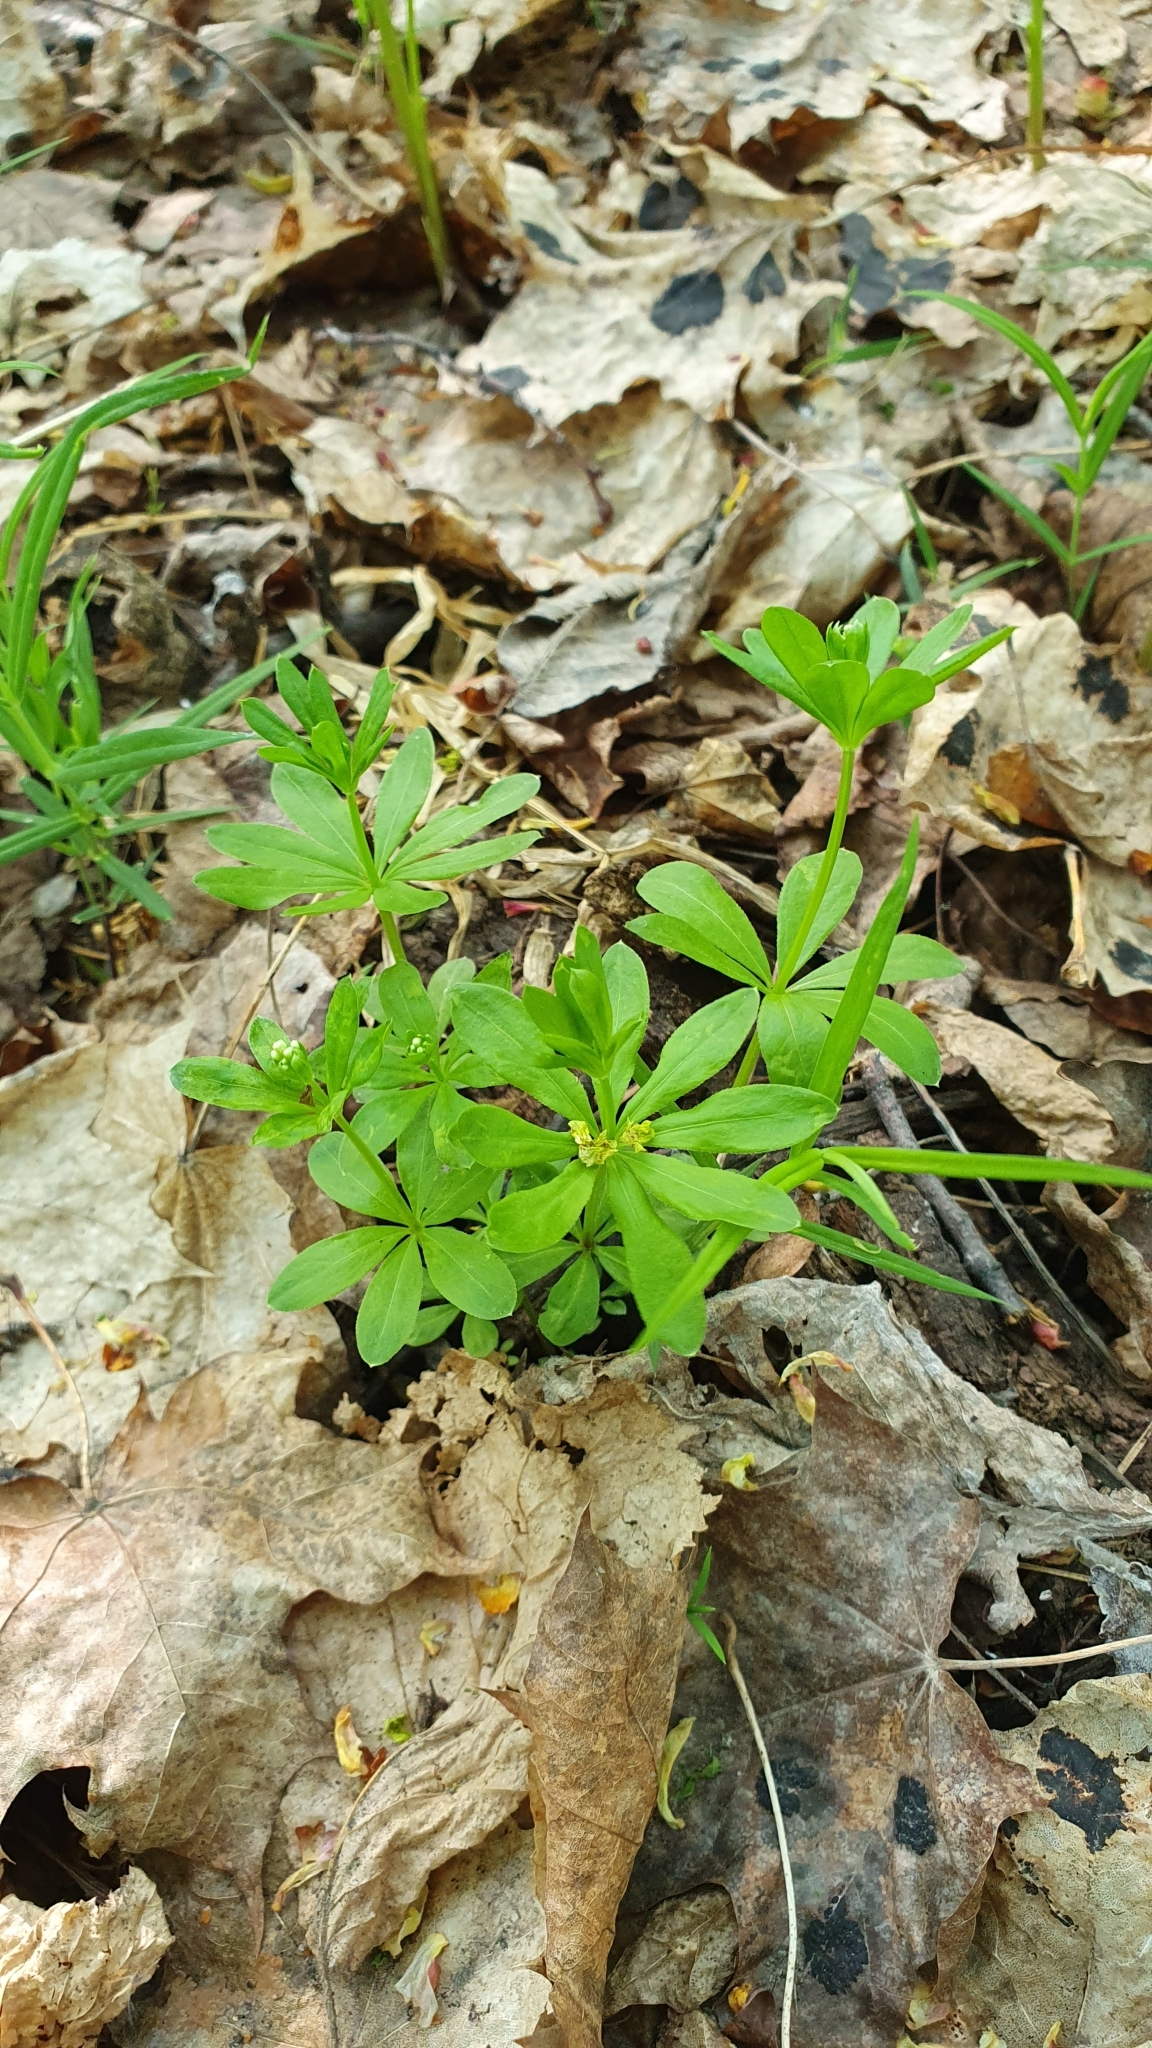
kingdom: Plantae
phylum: Tracheophyta
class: Magnoliopsida
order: Gentianales
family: Rubiaceae
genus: Galium
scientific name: Galium odoratum
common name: Sweet woodruff
